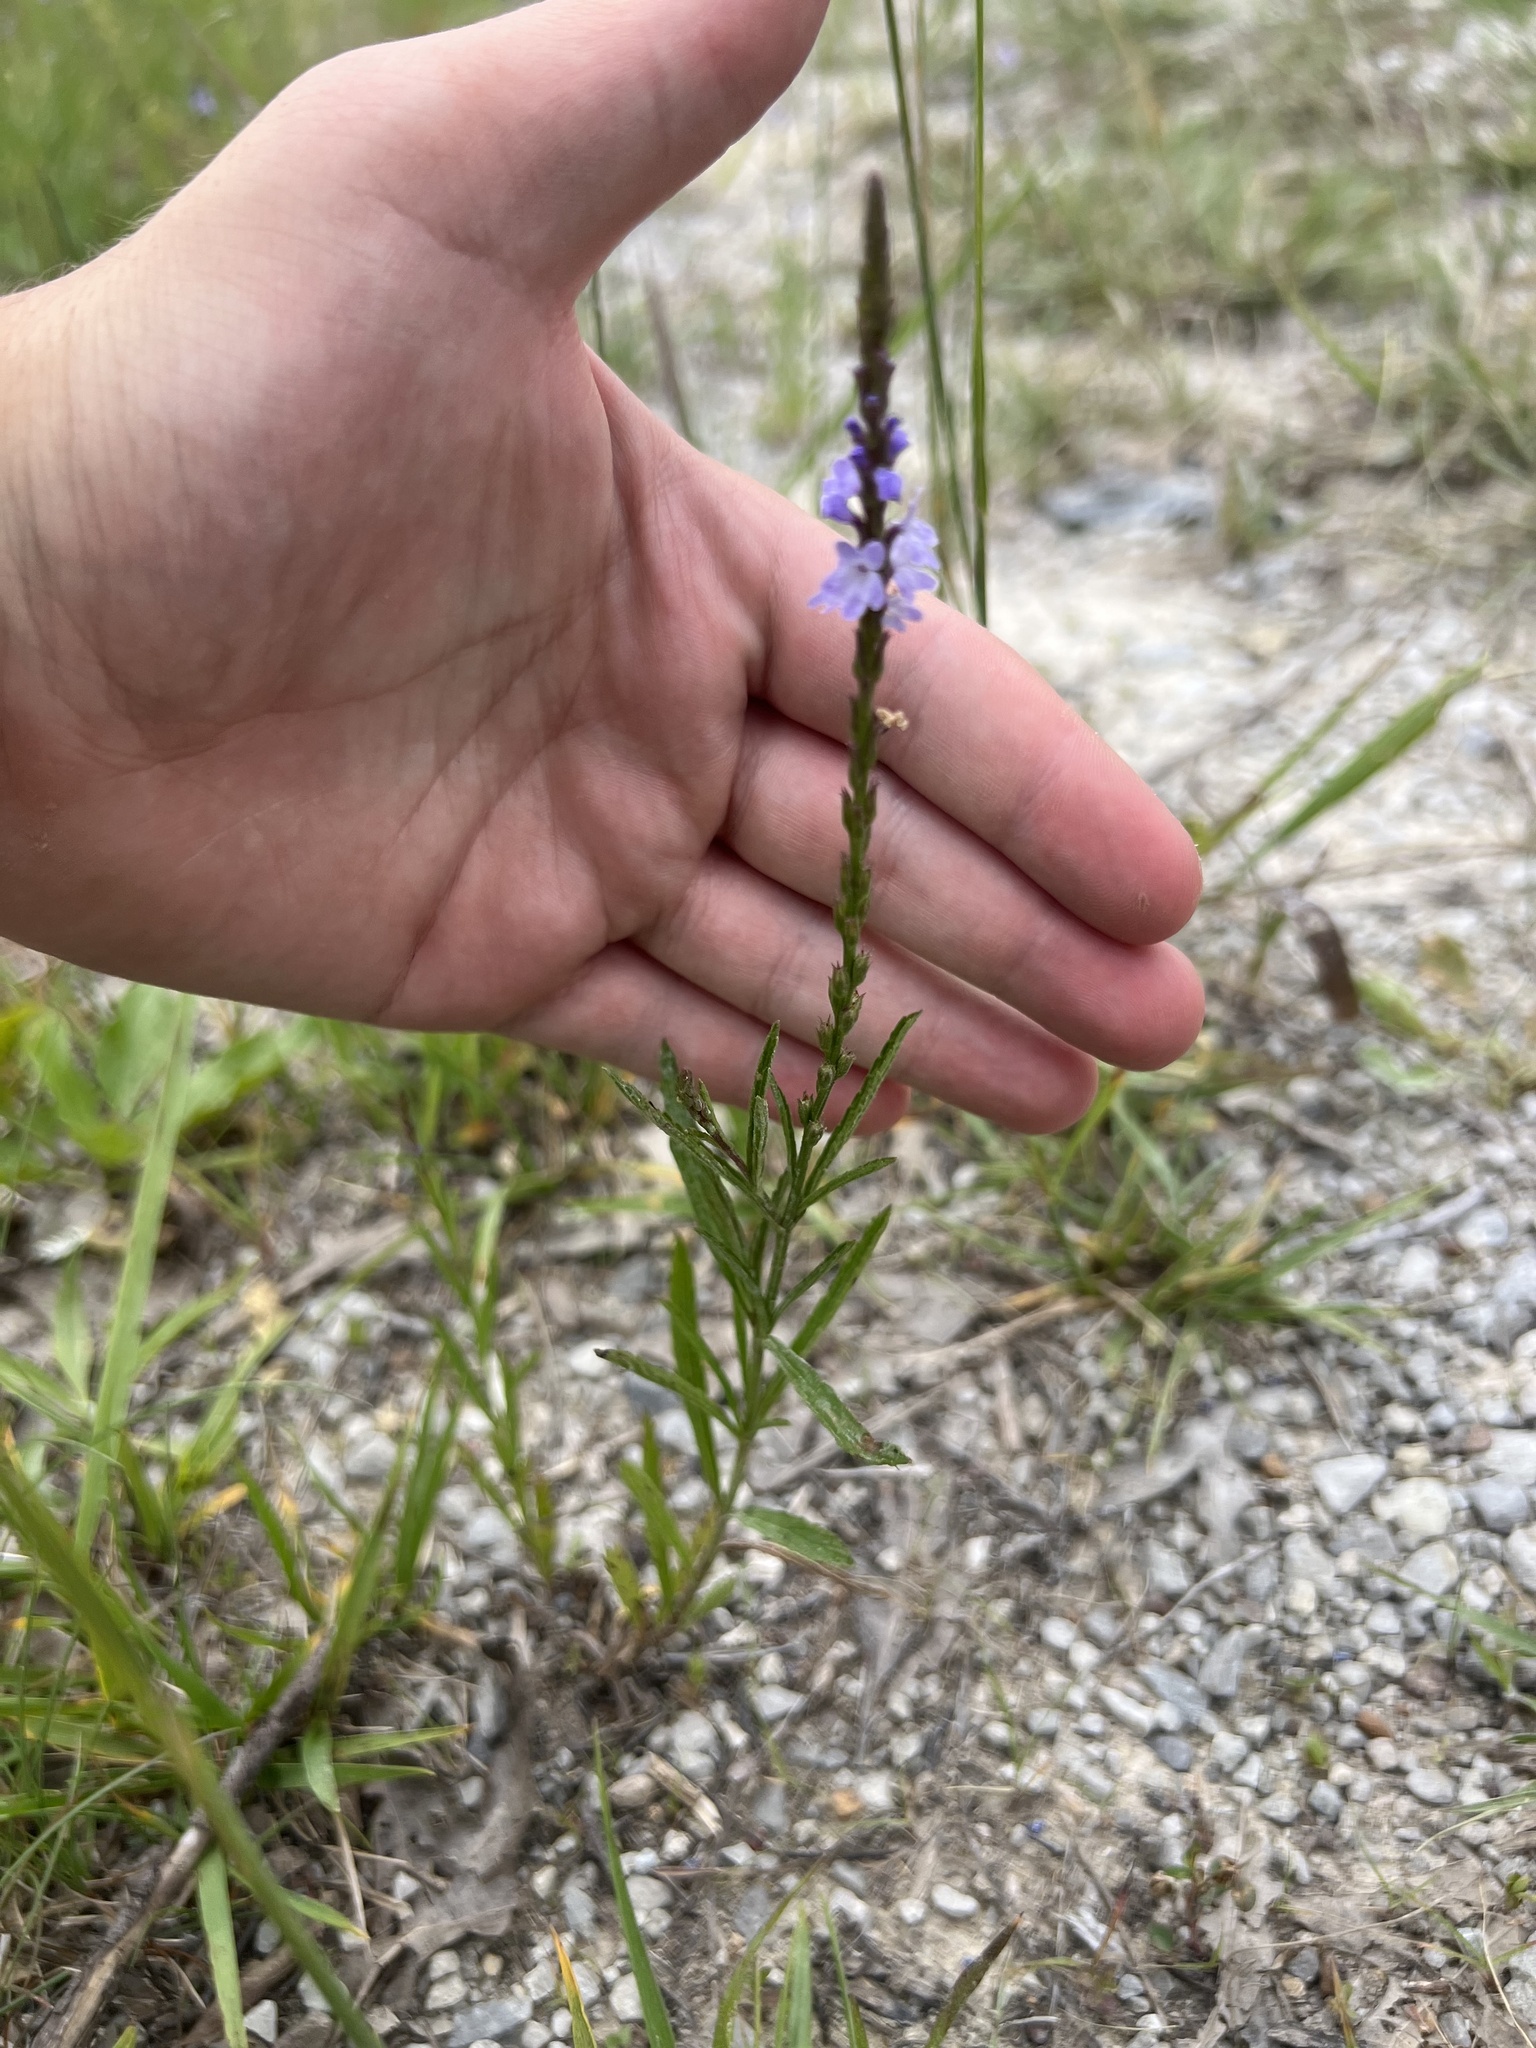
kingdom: Plantae
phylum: Tracheophyta
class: Magnoliopsida
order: Lamiales
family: Verbenaceae
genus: Verbena
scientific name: Verbena simplex
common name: Narrow-leaf vervain
